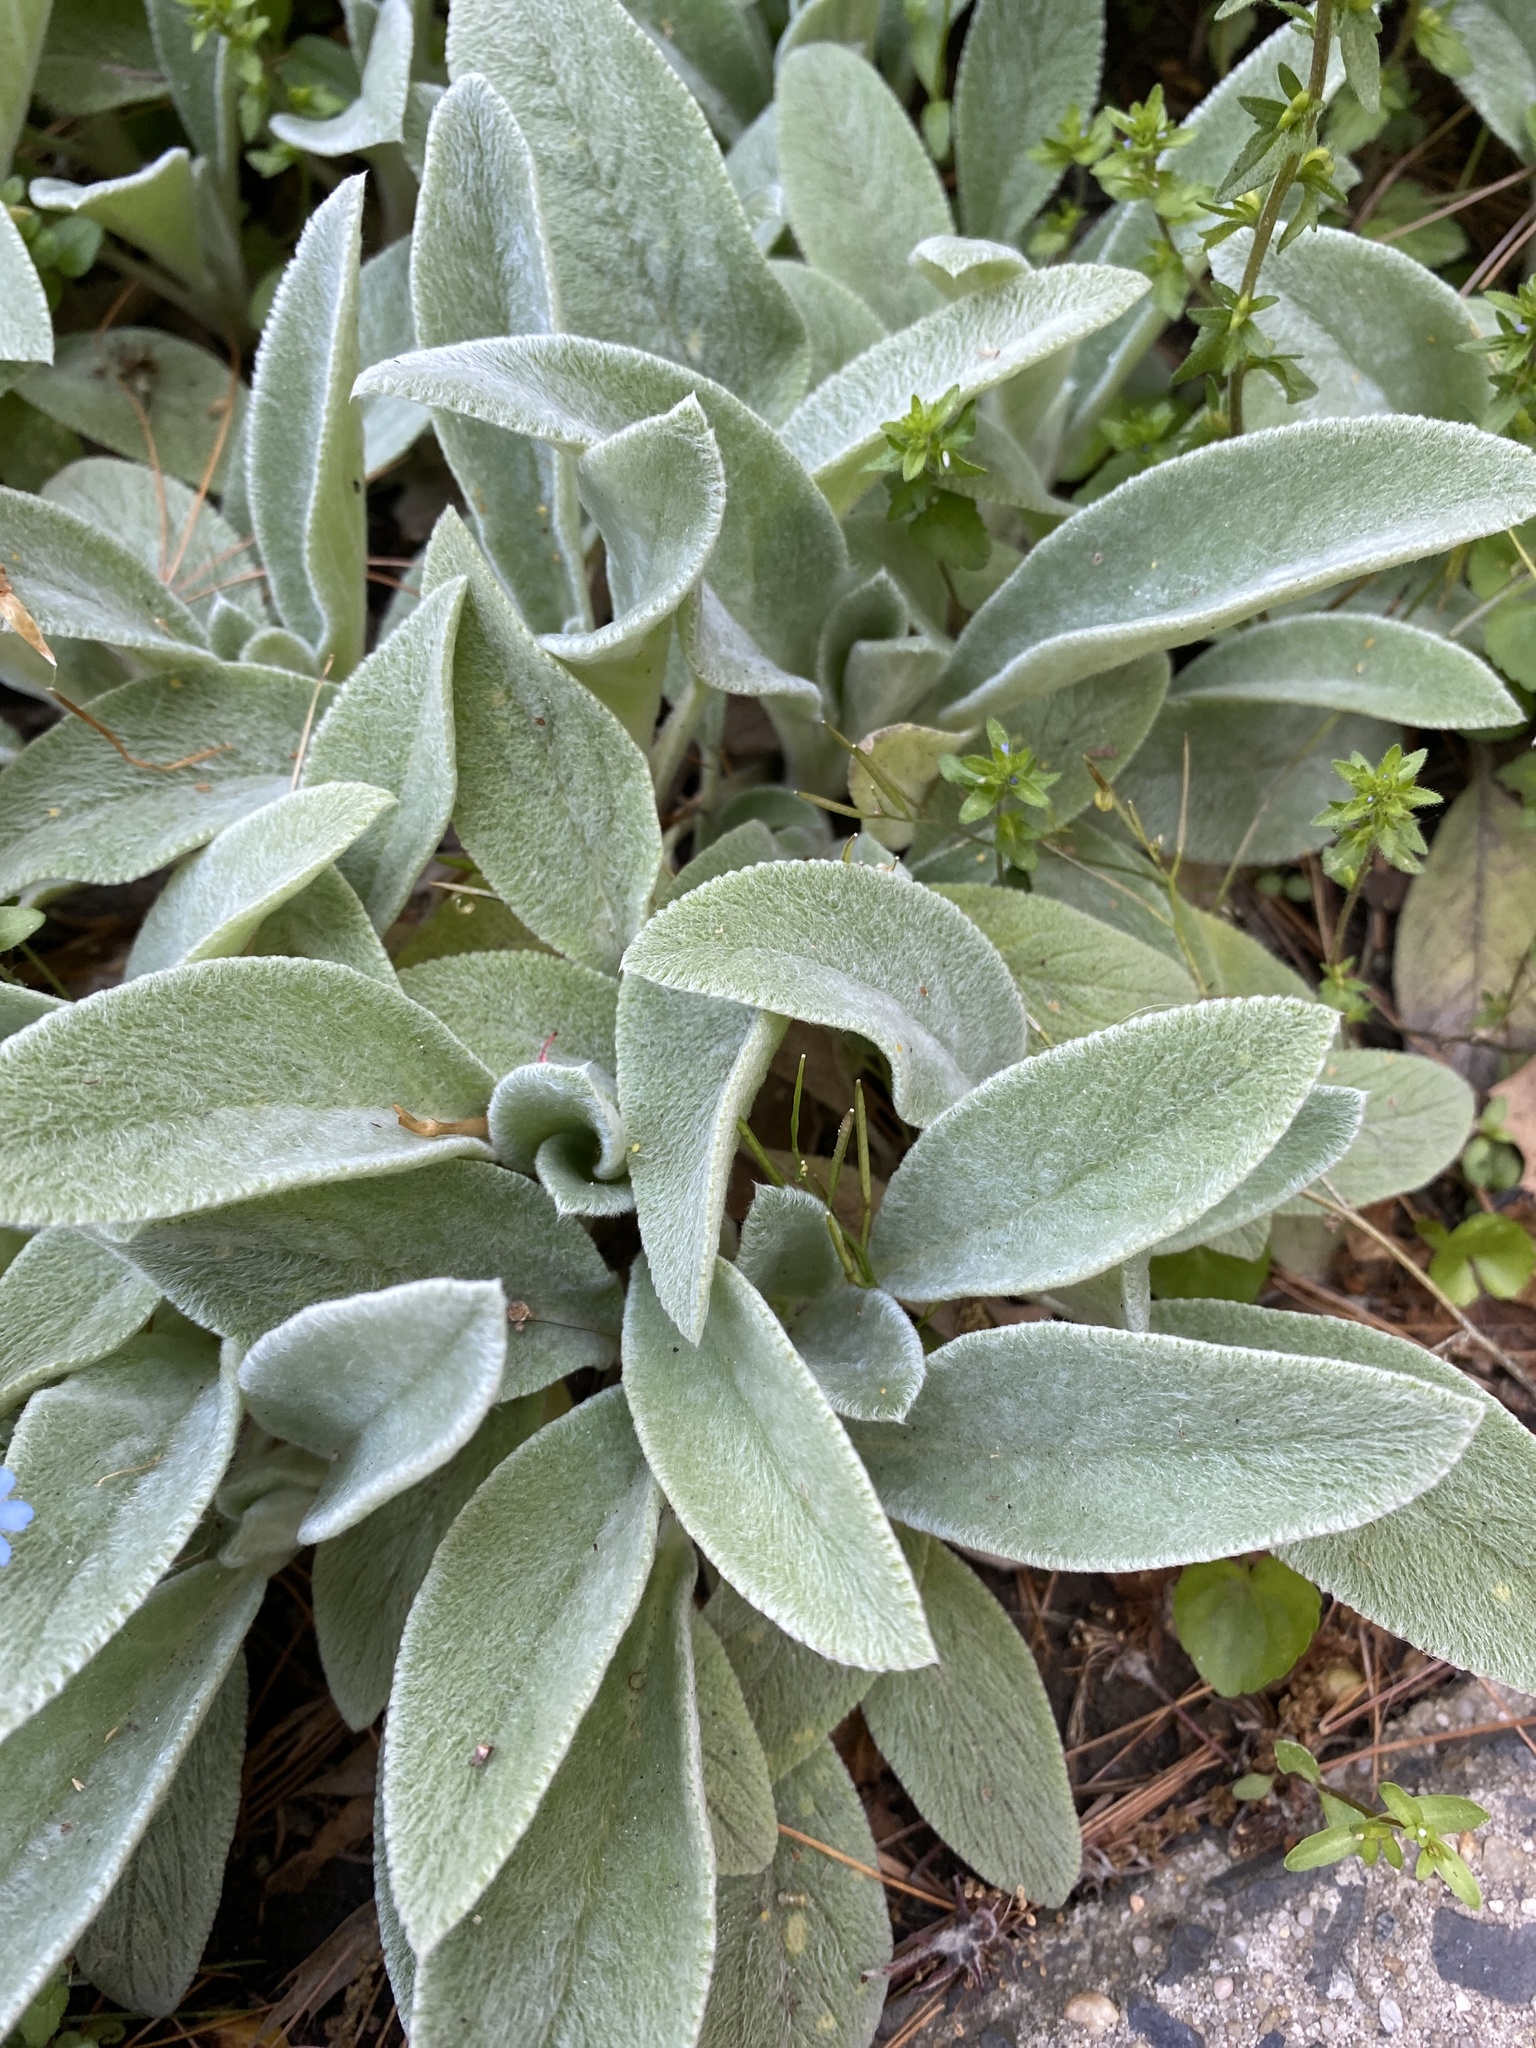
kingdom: Plantae
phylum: Tracheophyta
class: Magnoliopsida
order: Lamiales
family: Lamiaceae
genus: Stachys
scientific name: Stachys byzantina
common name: Lamb's-ear
